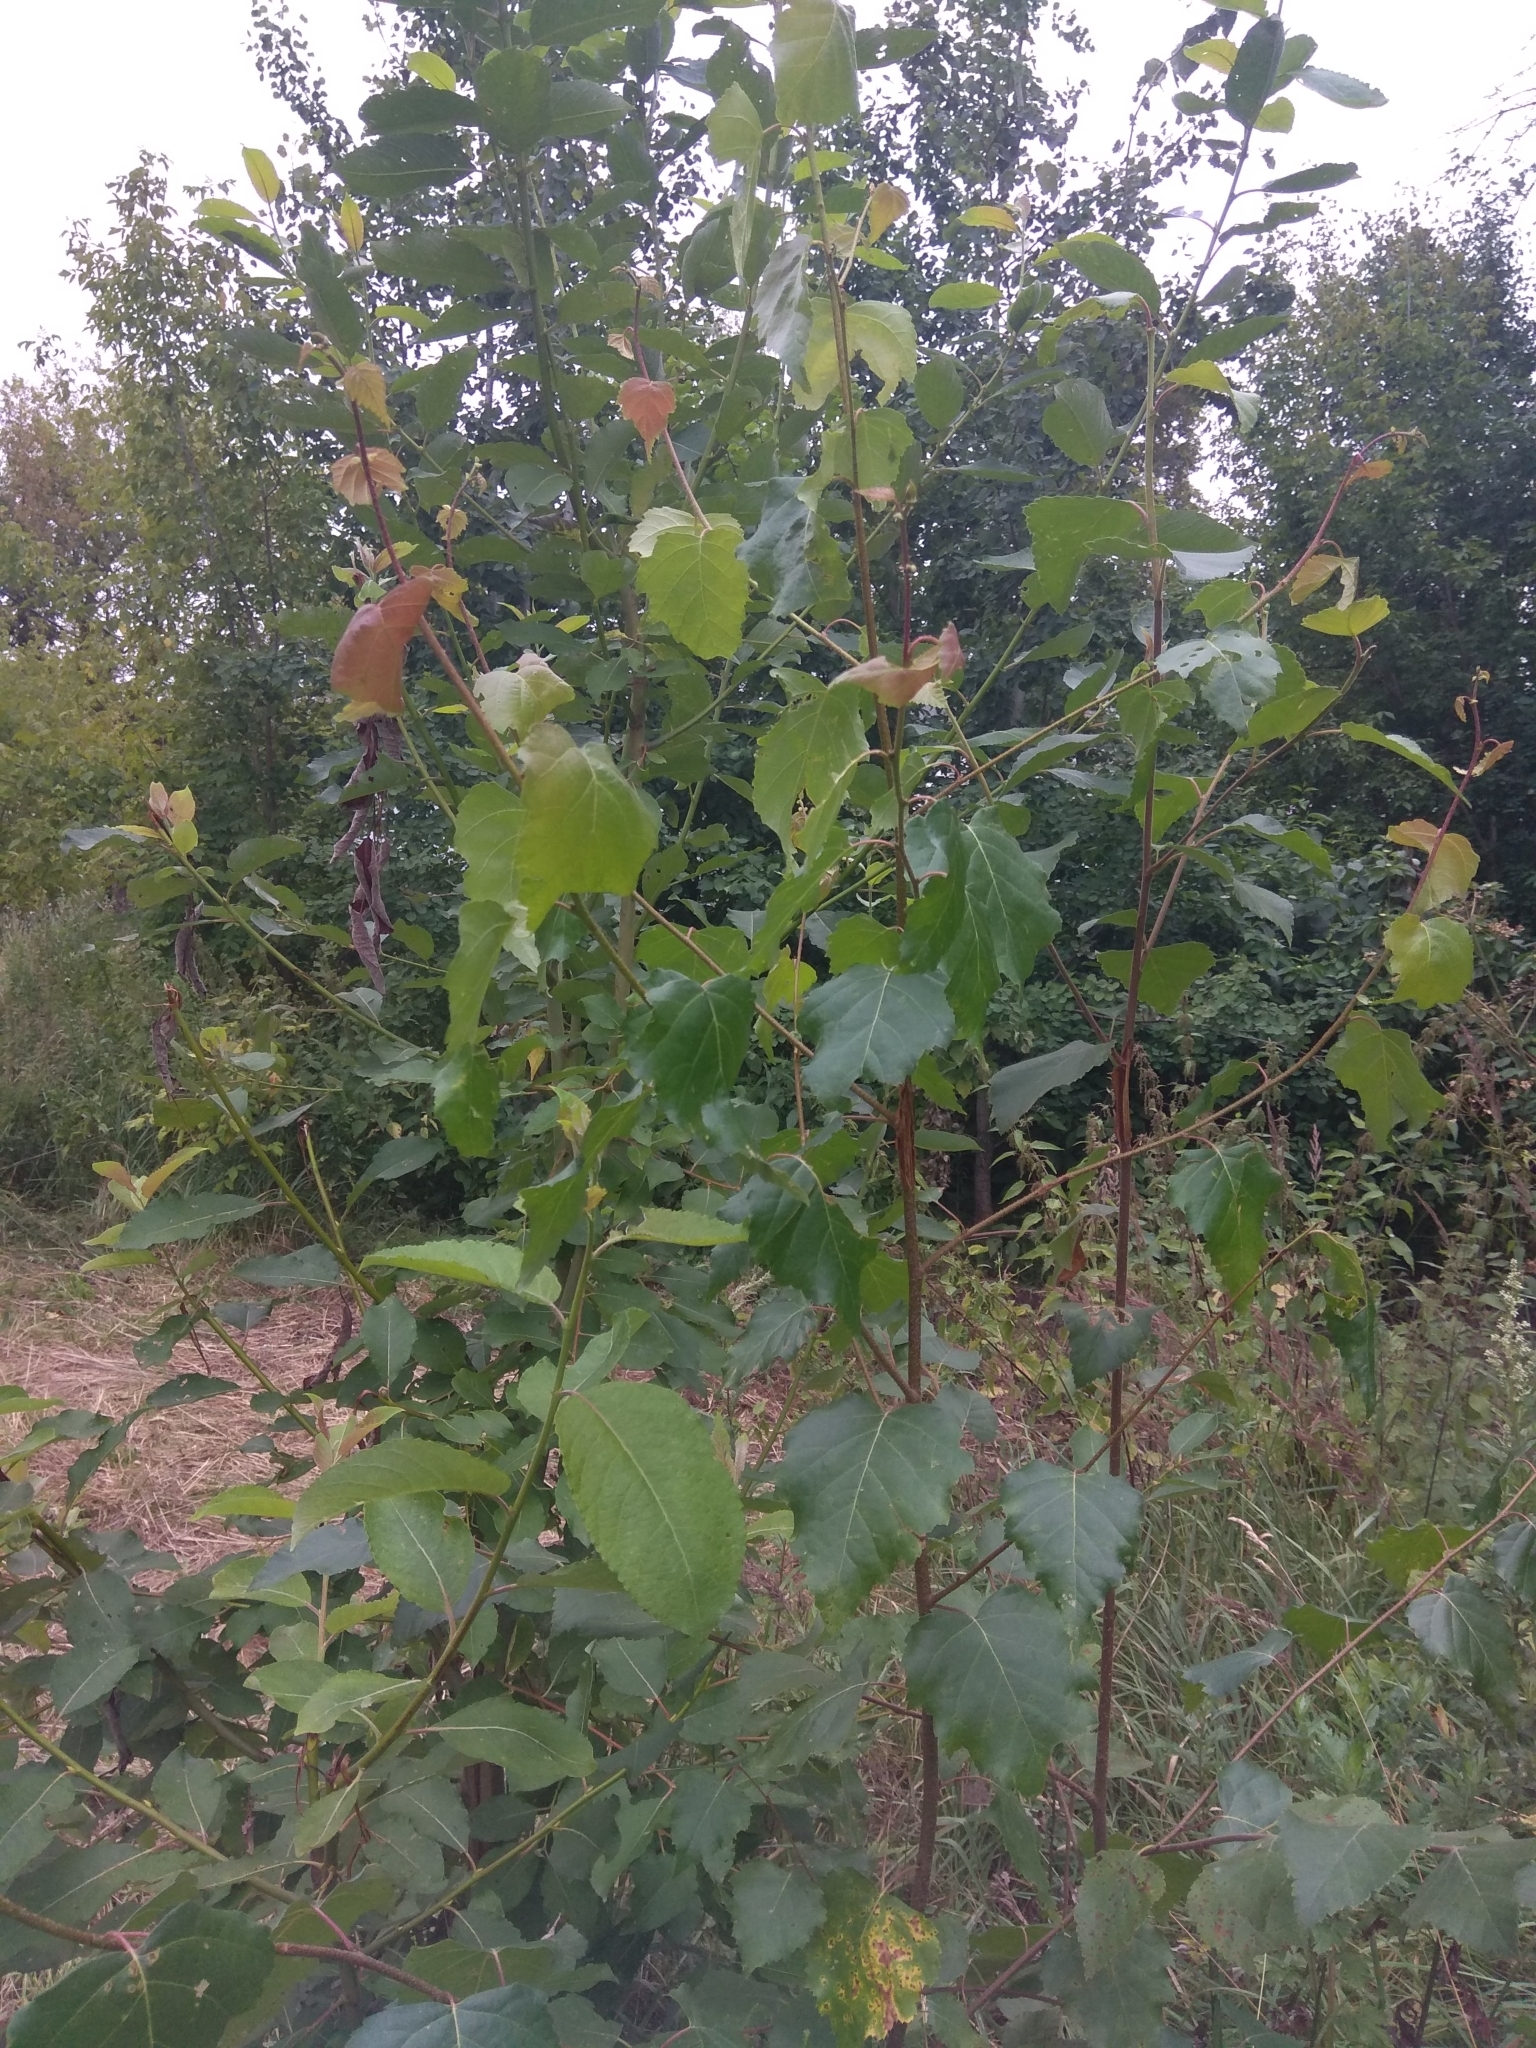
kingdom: Plantae
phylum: Tracheophyta
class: Magnoliopsida
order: Fagales
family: Betulaceae
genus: Betula
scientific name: Betula pendula
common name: Silver birch
